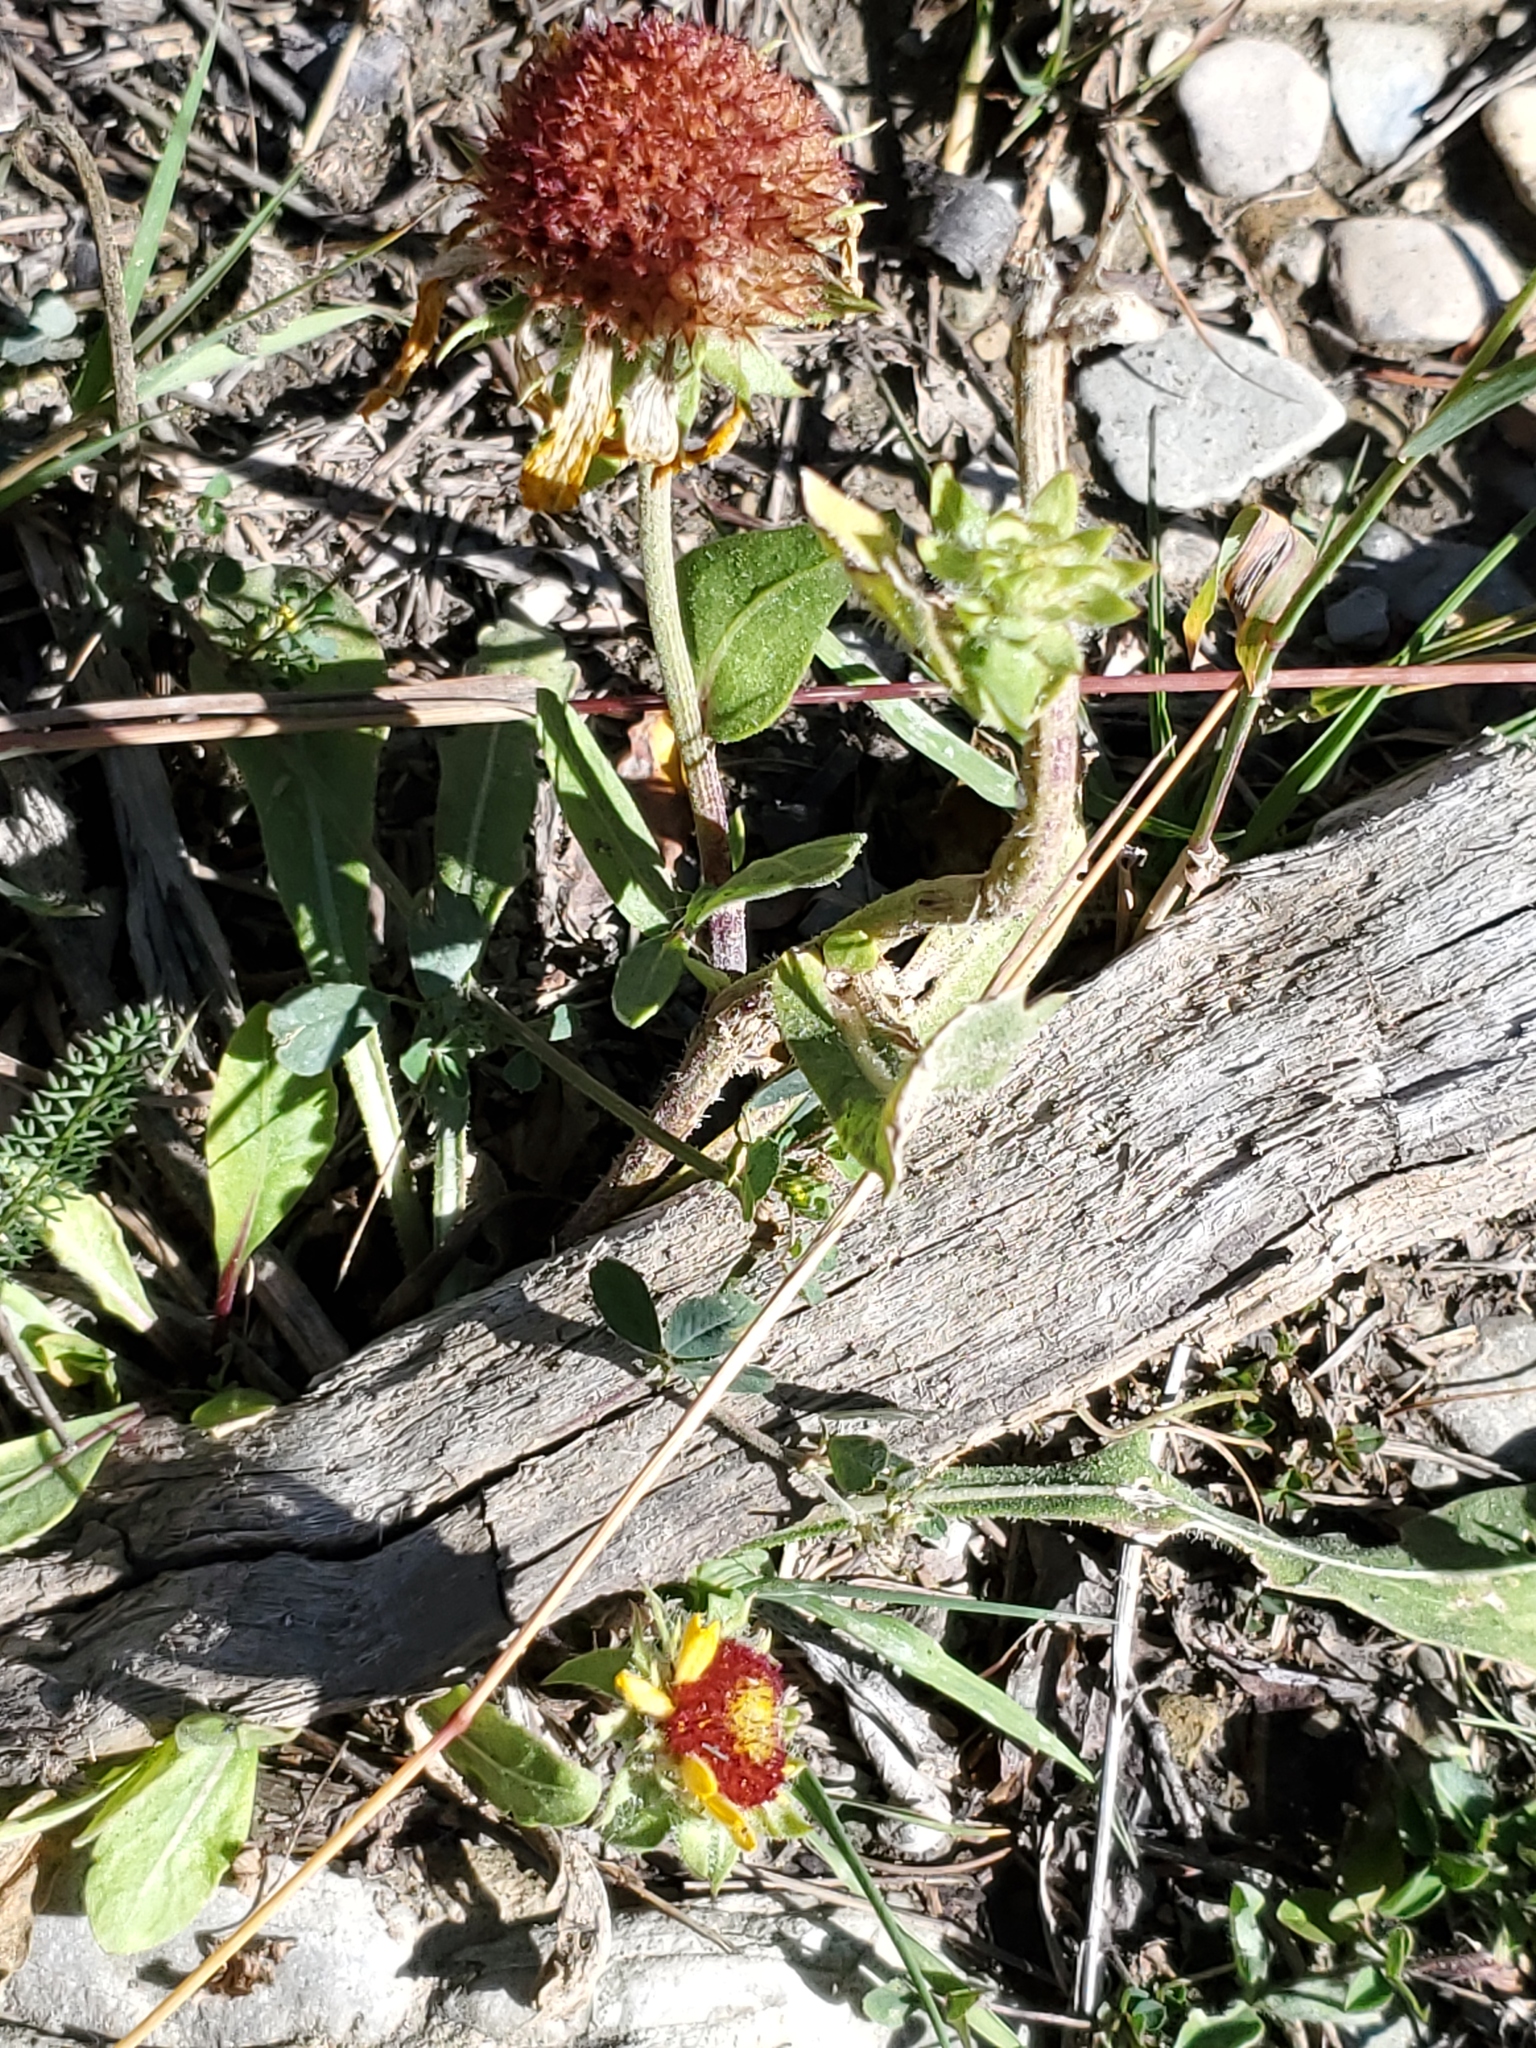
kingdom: Plantae
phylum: Tracheophyta
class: Magnoliopsida
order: Asterales
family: Asteraceae
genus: Gaillardia
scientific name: Gaillardia aristata
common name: Blanket-flower
